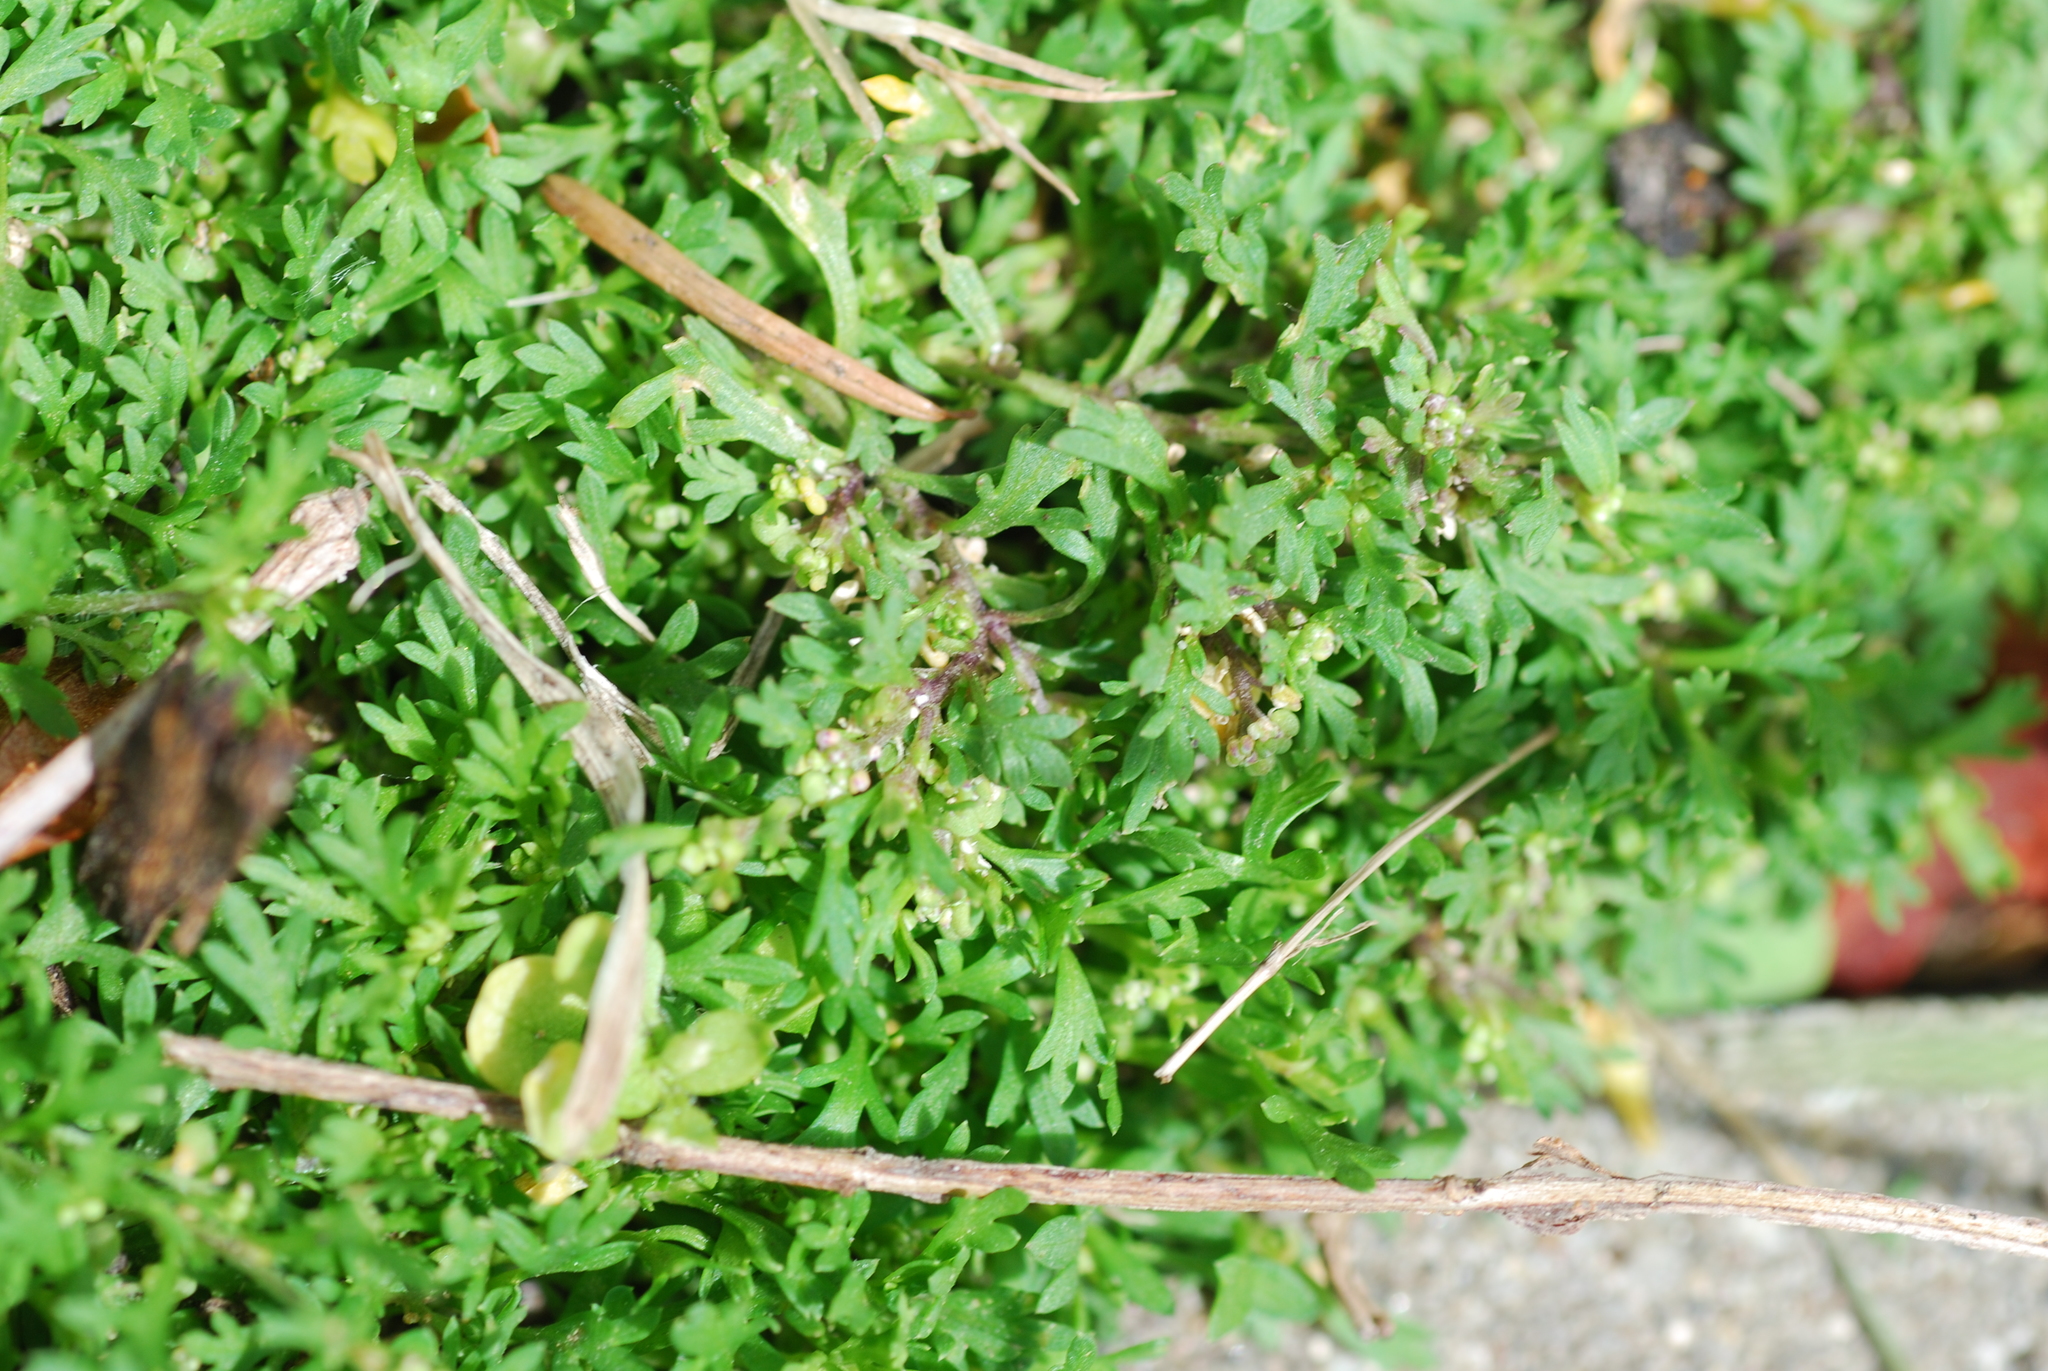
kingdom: Plantae
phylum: Tracheophyta
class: Magnoliopsida
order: Brassicales
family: Brassicaceae
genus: Lepidium
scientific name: Lepidium didymum
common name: Lesser swinecress
